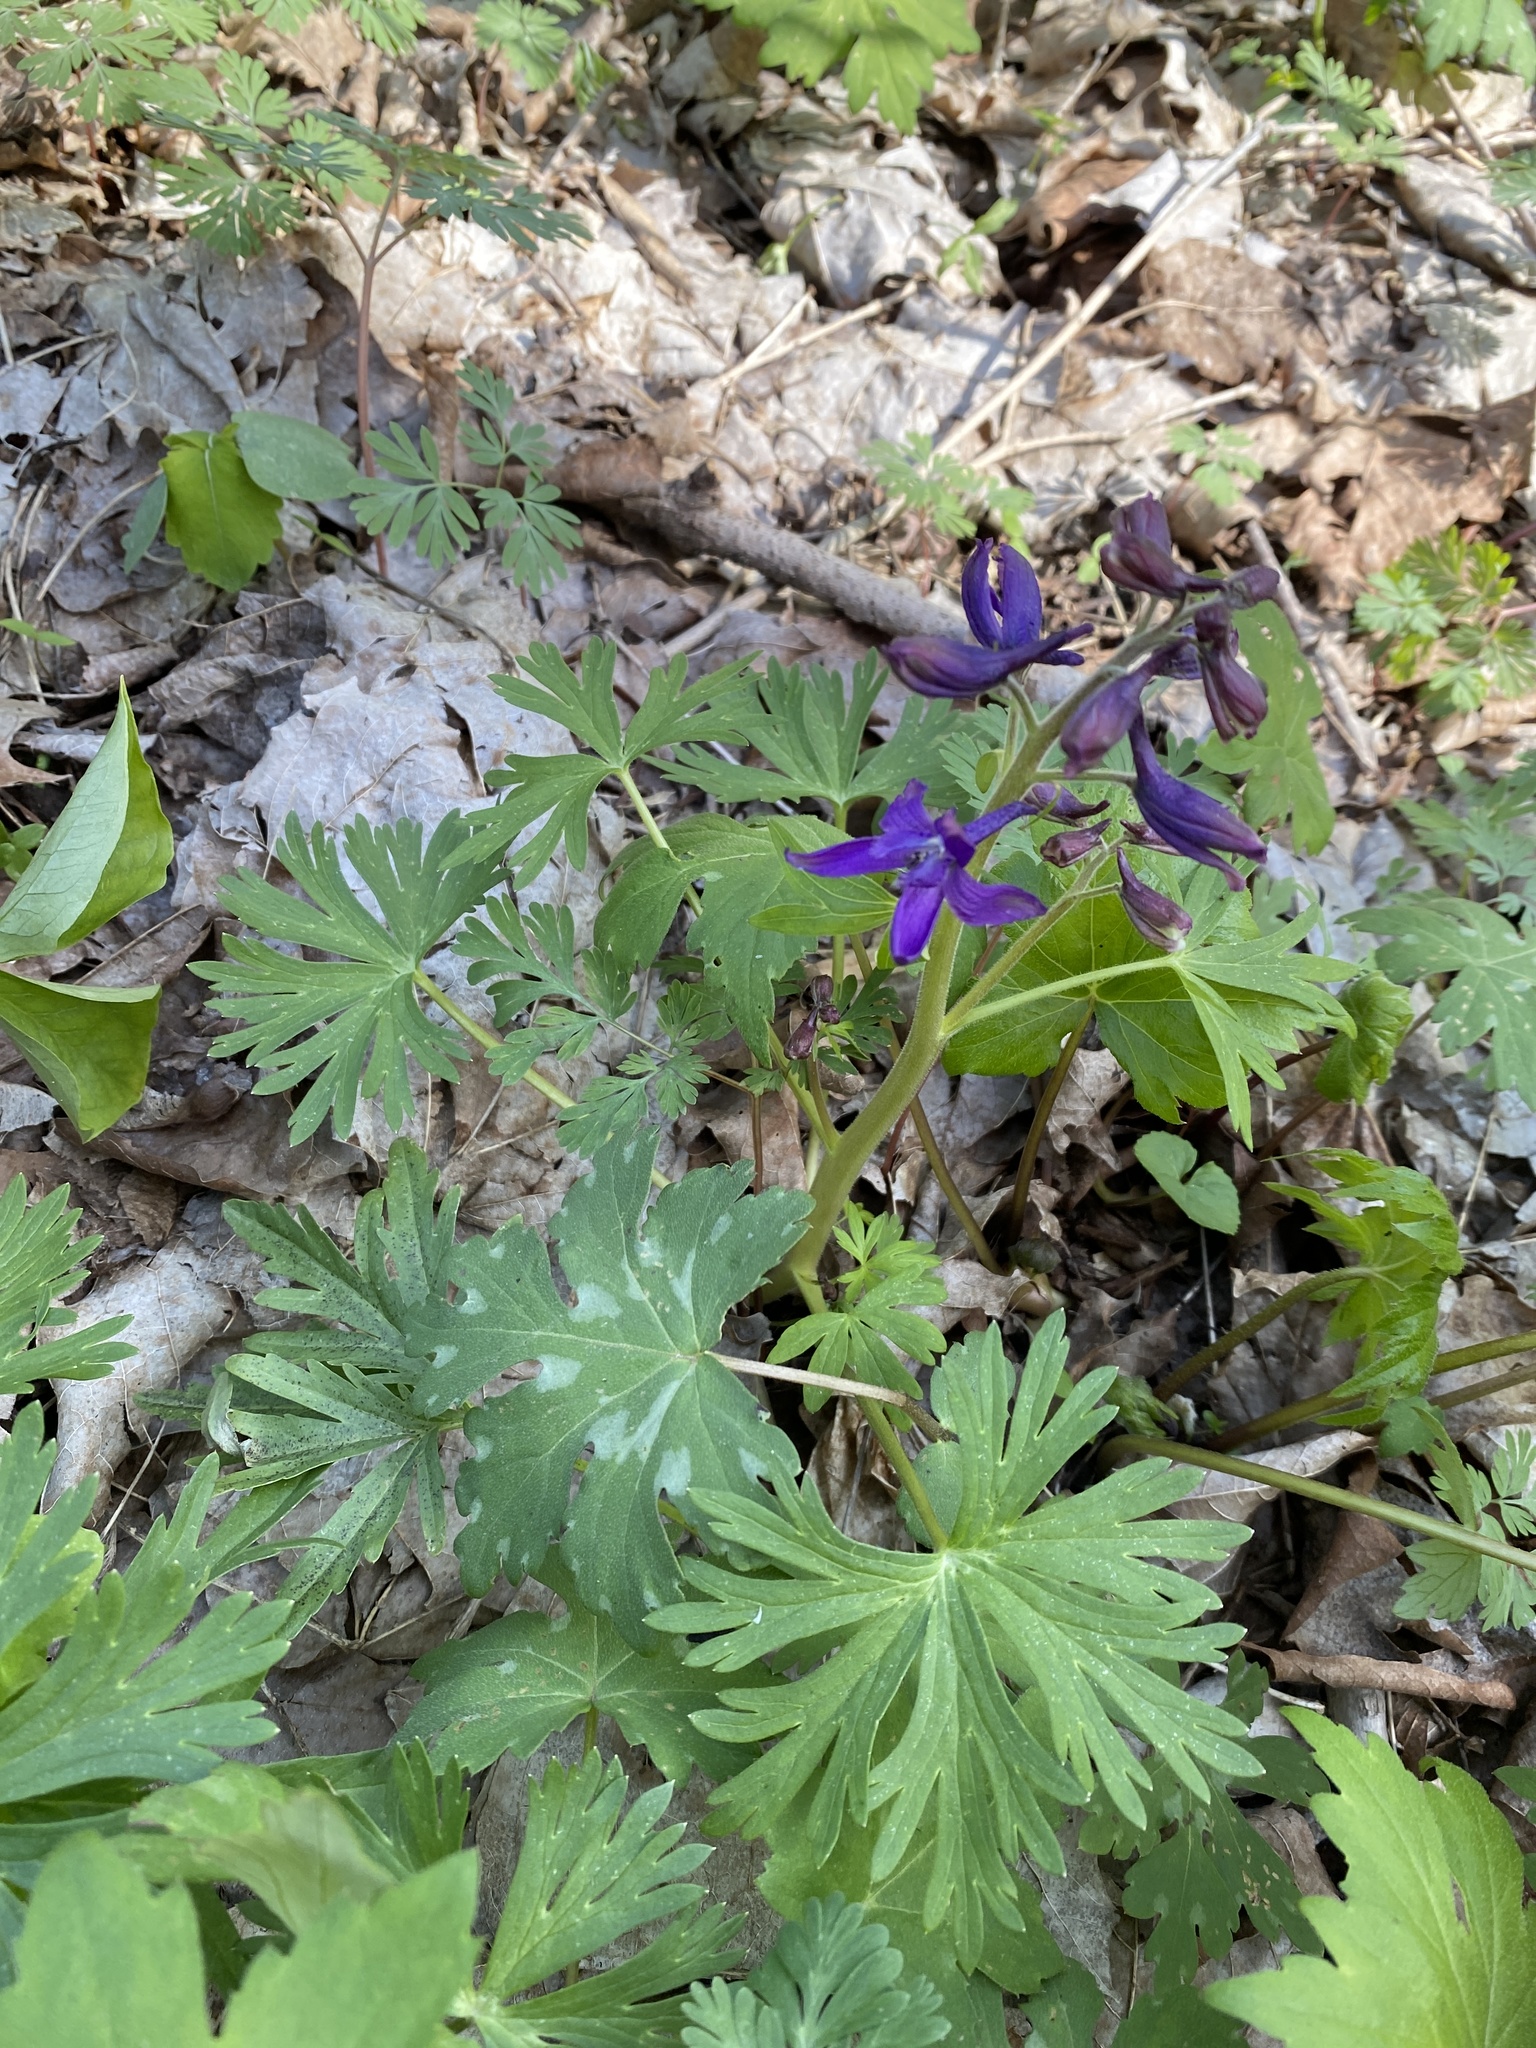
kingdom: Plantae
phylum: Tracheophyta
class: Magnoliopsida
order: Ranunculales
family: Ranunculaceae
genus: Delphinium
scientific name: Delphinium tricorne
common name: Dwarf larkspur
